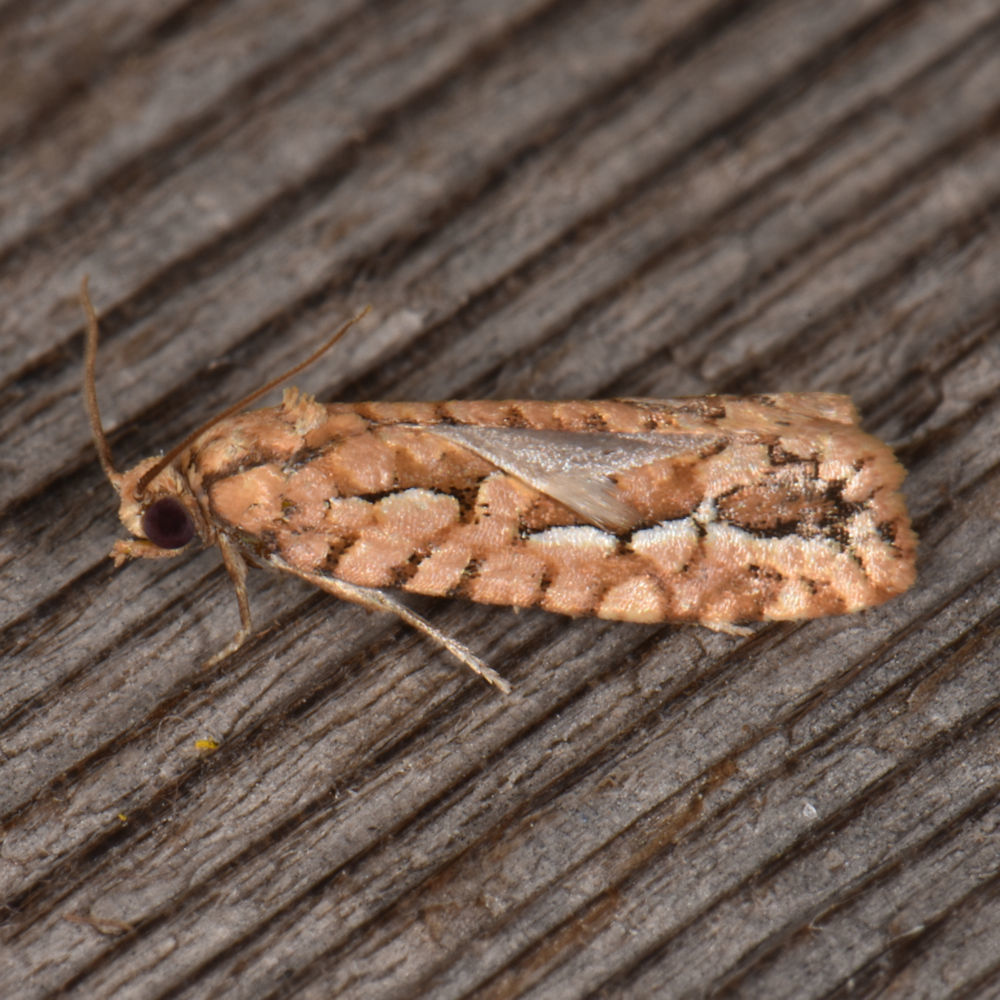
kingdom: Animalia
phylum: Arthropoda
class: Insecta
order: Lepidoptera
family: Tortricidae
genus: Diedra
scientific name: Diedra cockerellana
